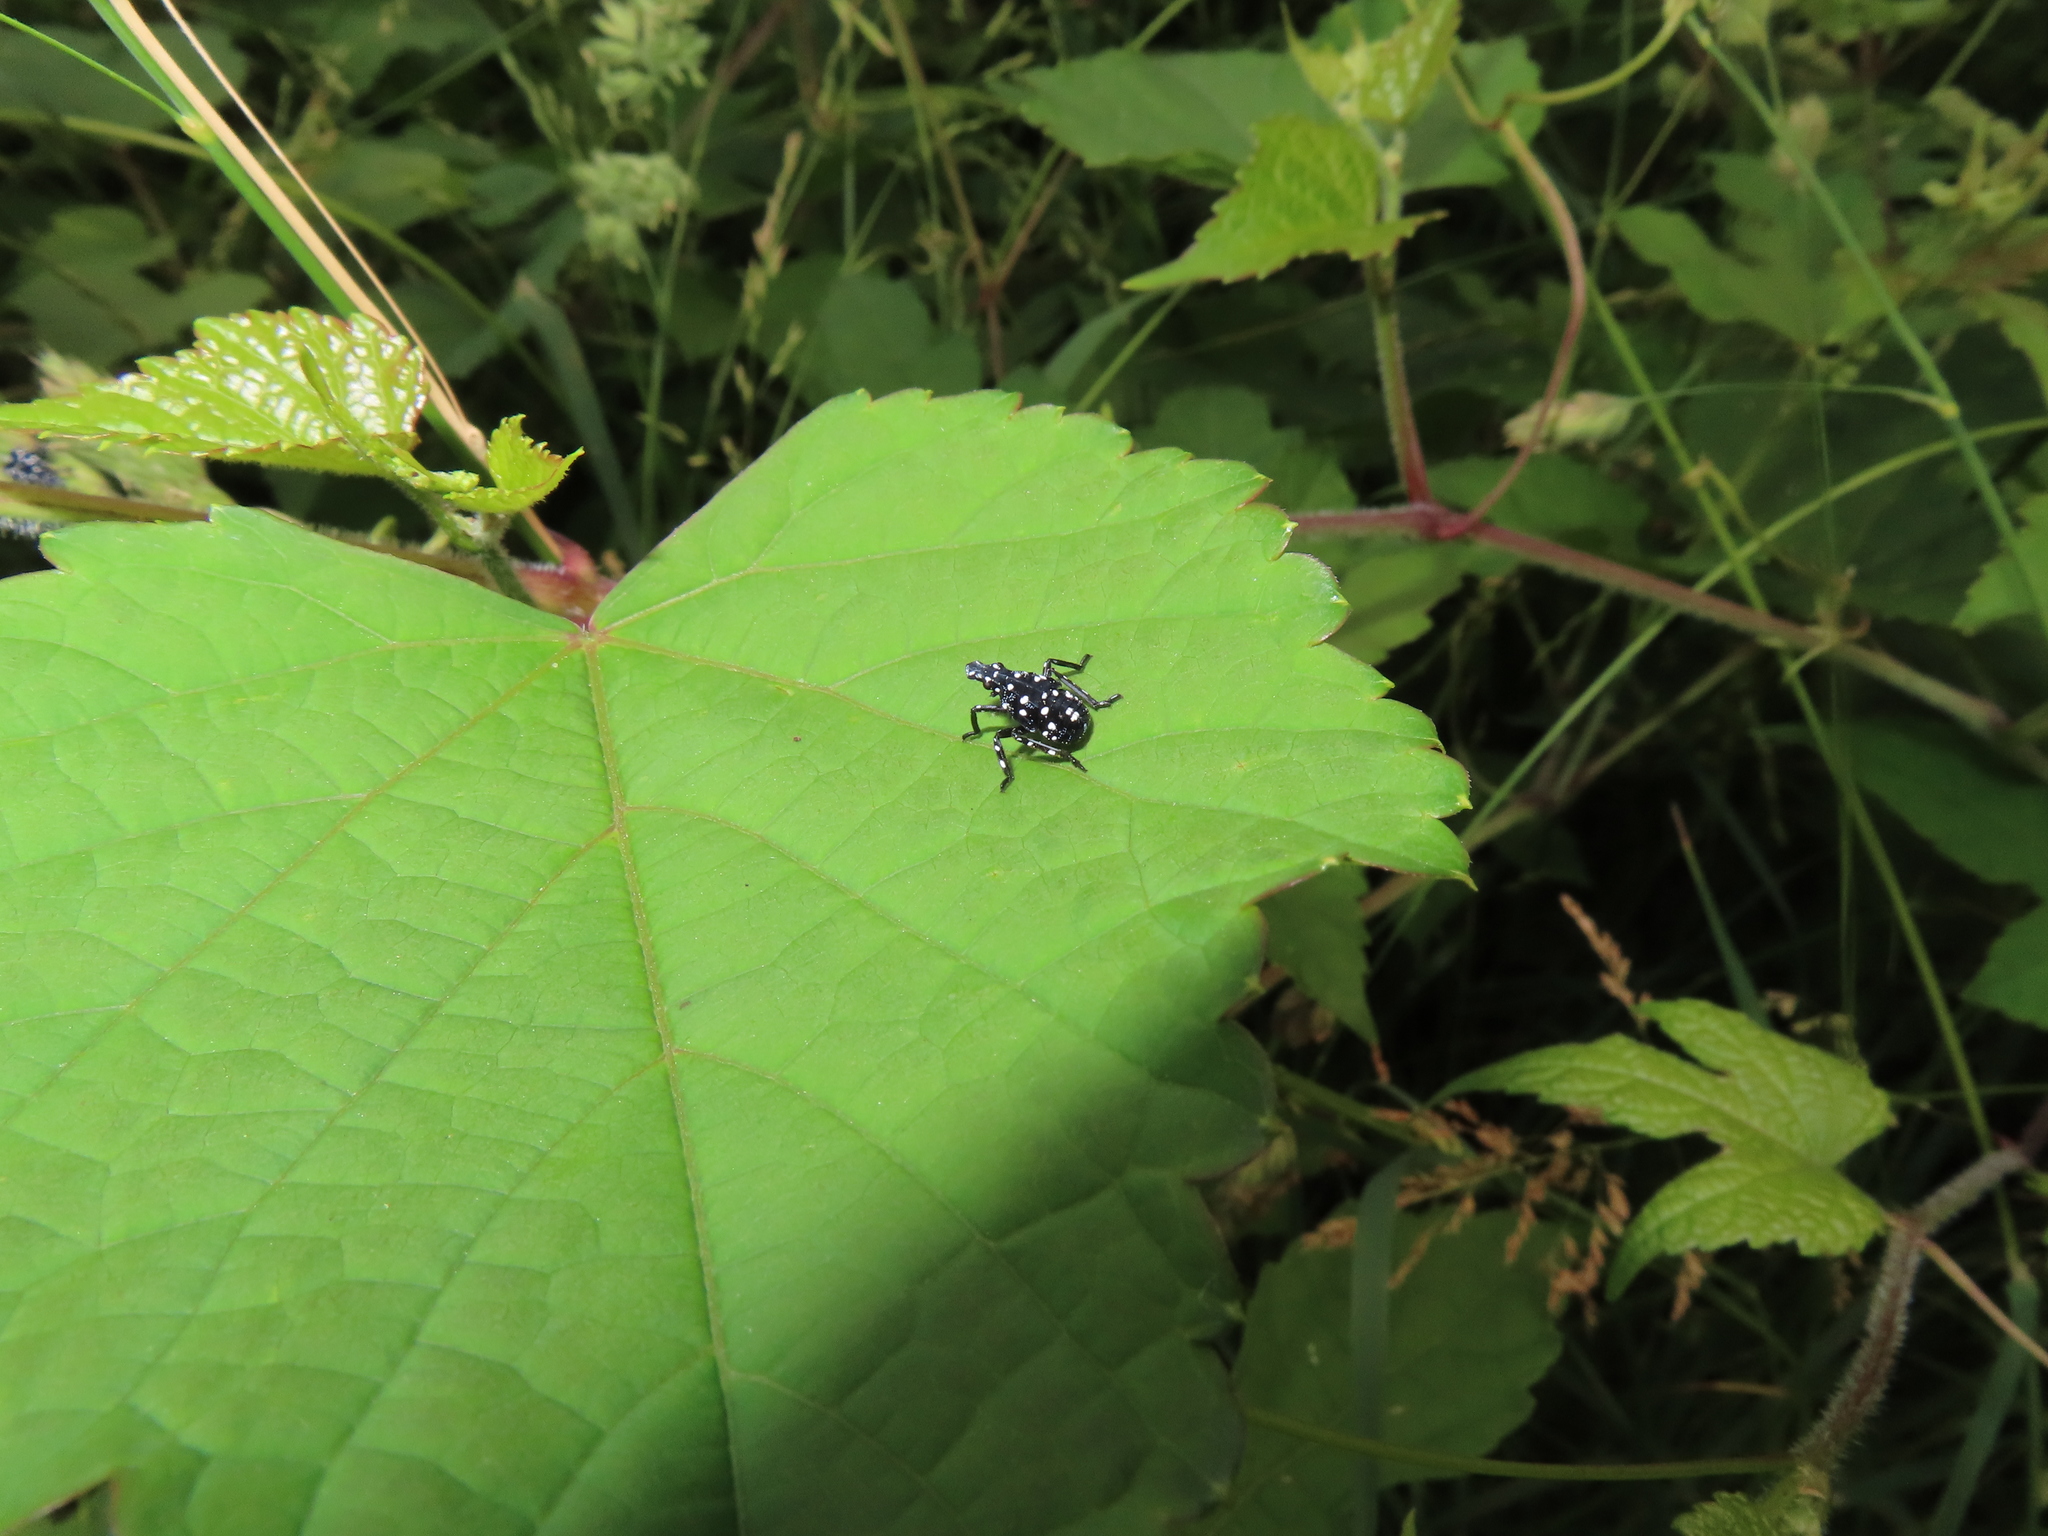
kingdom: Animalia
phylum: Arthropoda
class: Insecta
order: Hemiptera
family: Fulgoridae
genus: Lycorma
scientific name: Lycorma delicatula
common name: Spotted lanternfly
